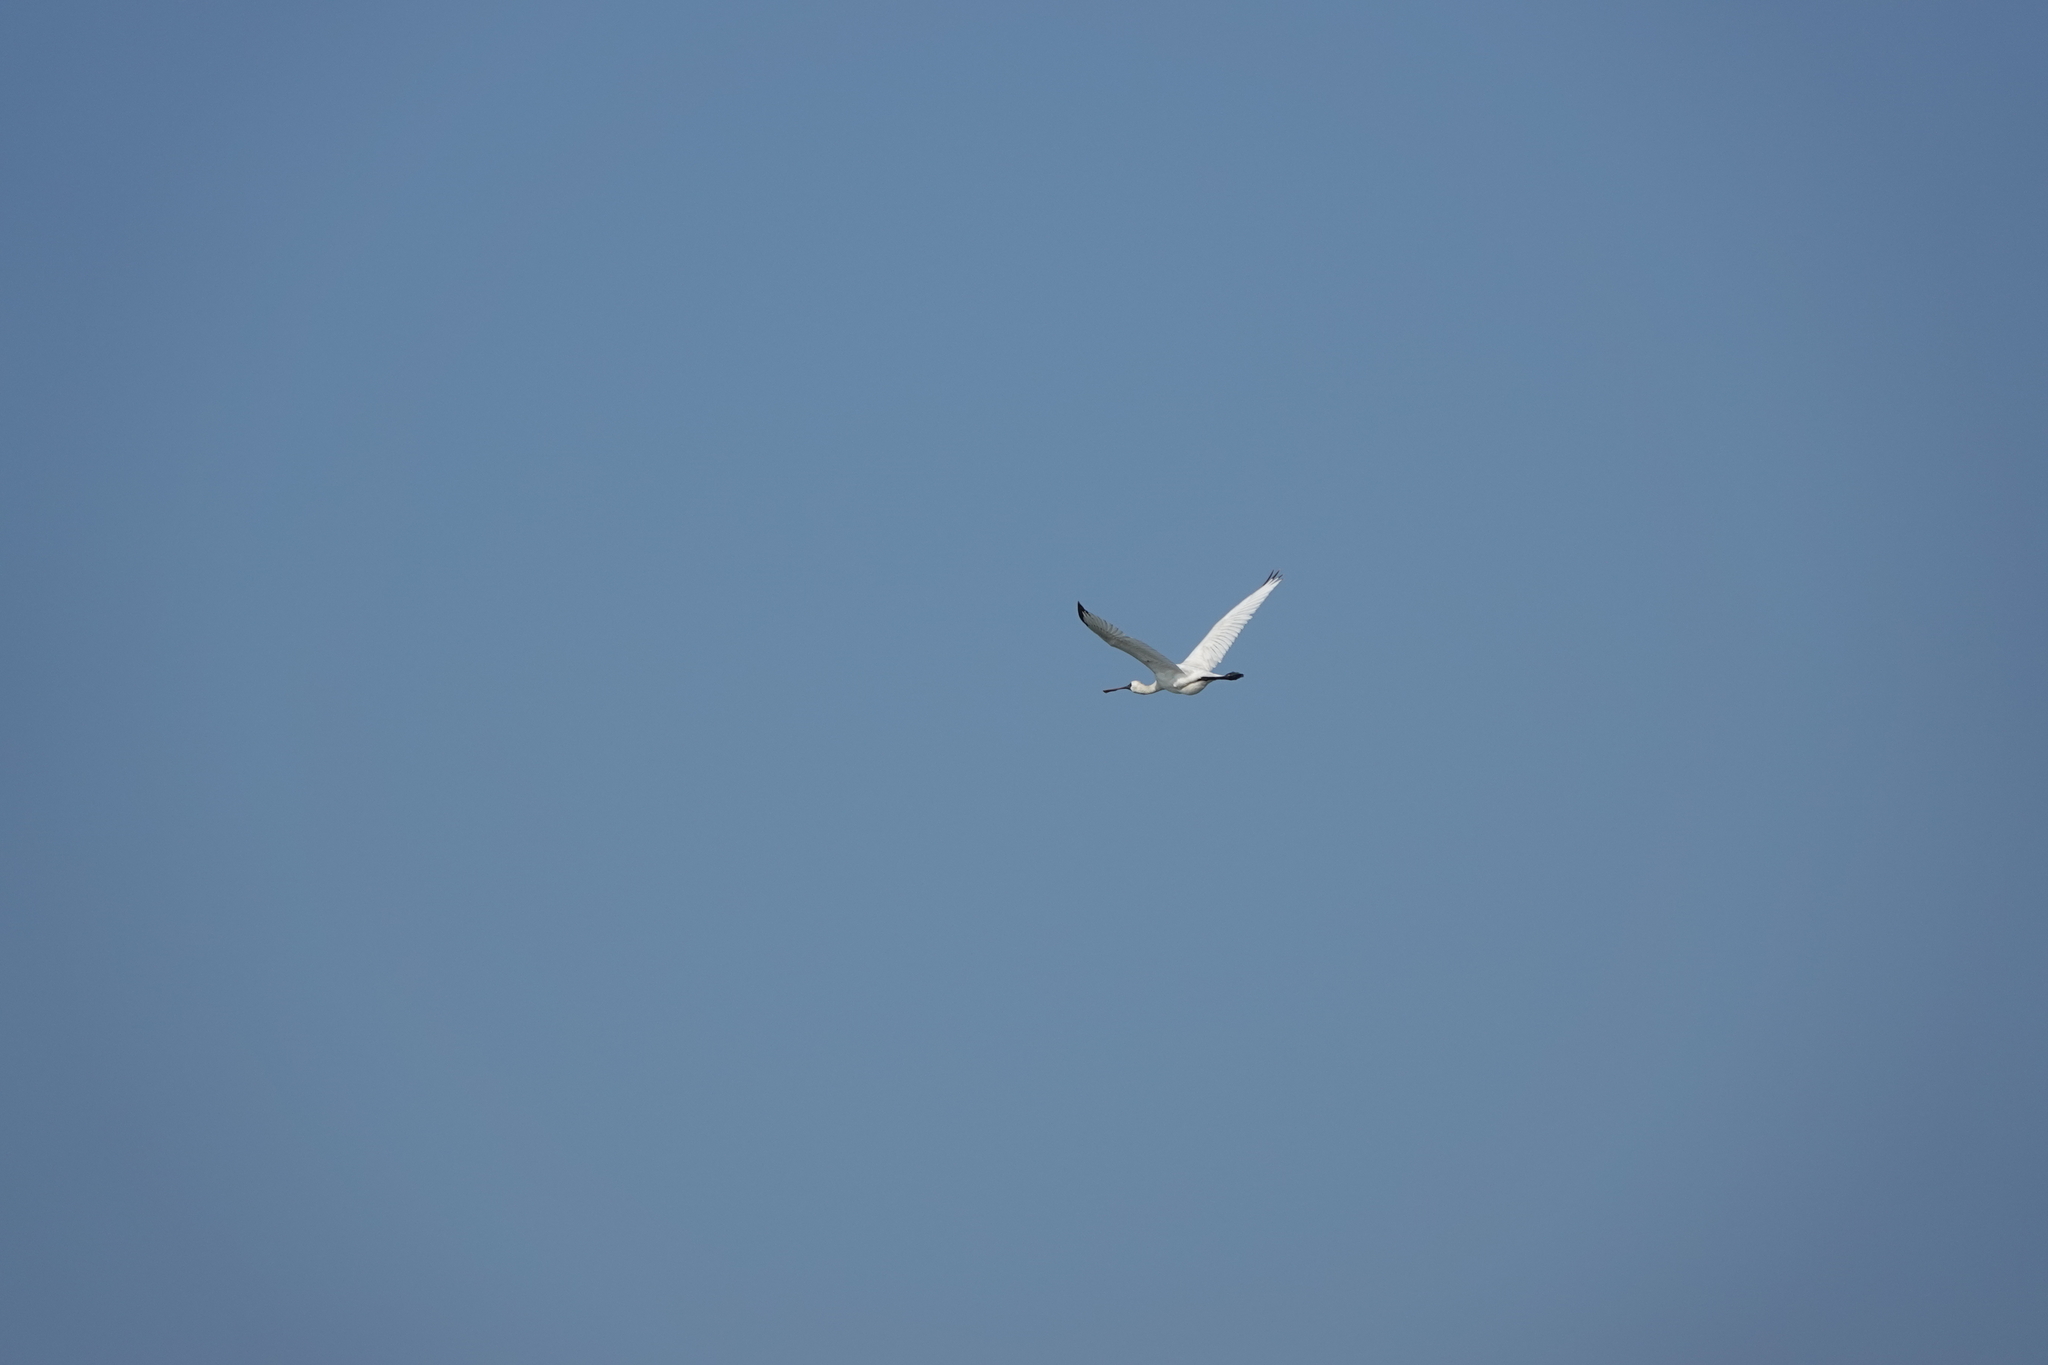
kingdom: Animalia
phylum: Chordata
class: Aves
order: Pelecaniformes
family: Threskiornithidae
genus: Platalea
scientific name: Platalea minor
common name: Black-faced spoonbill
